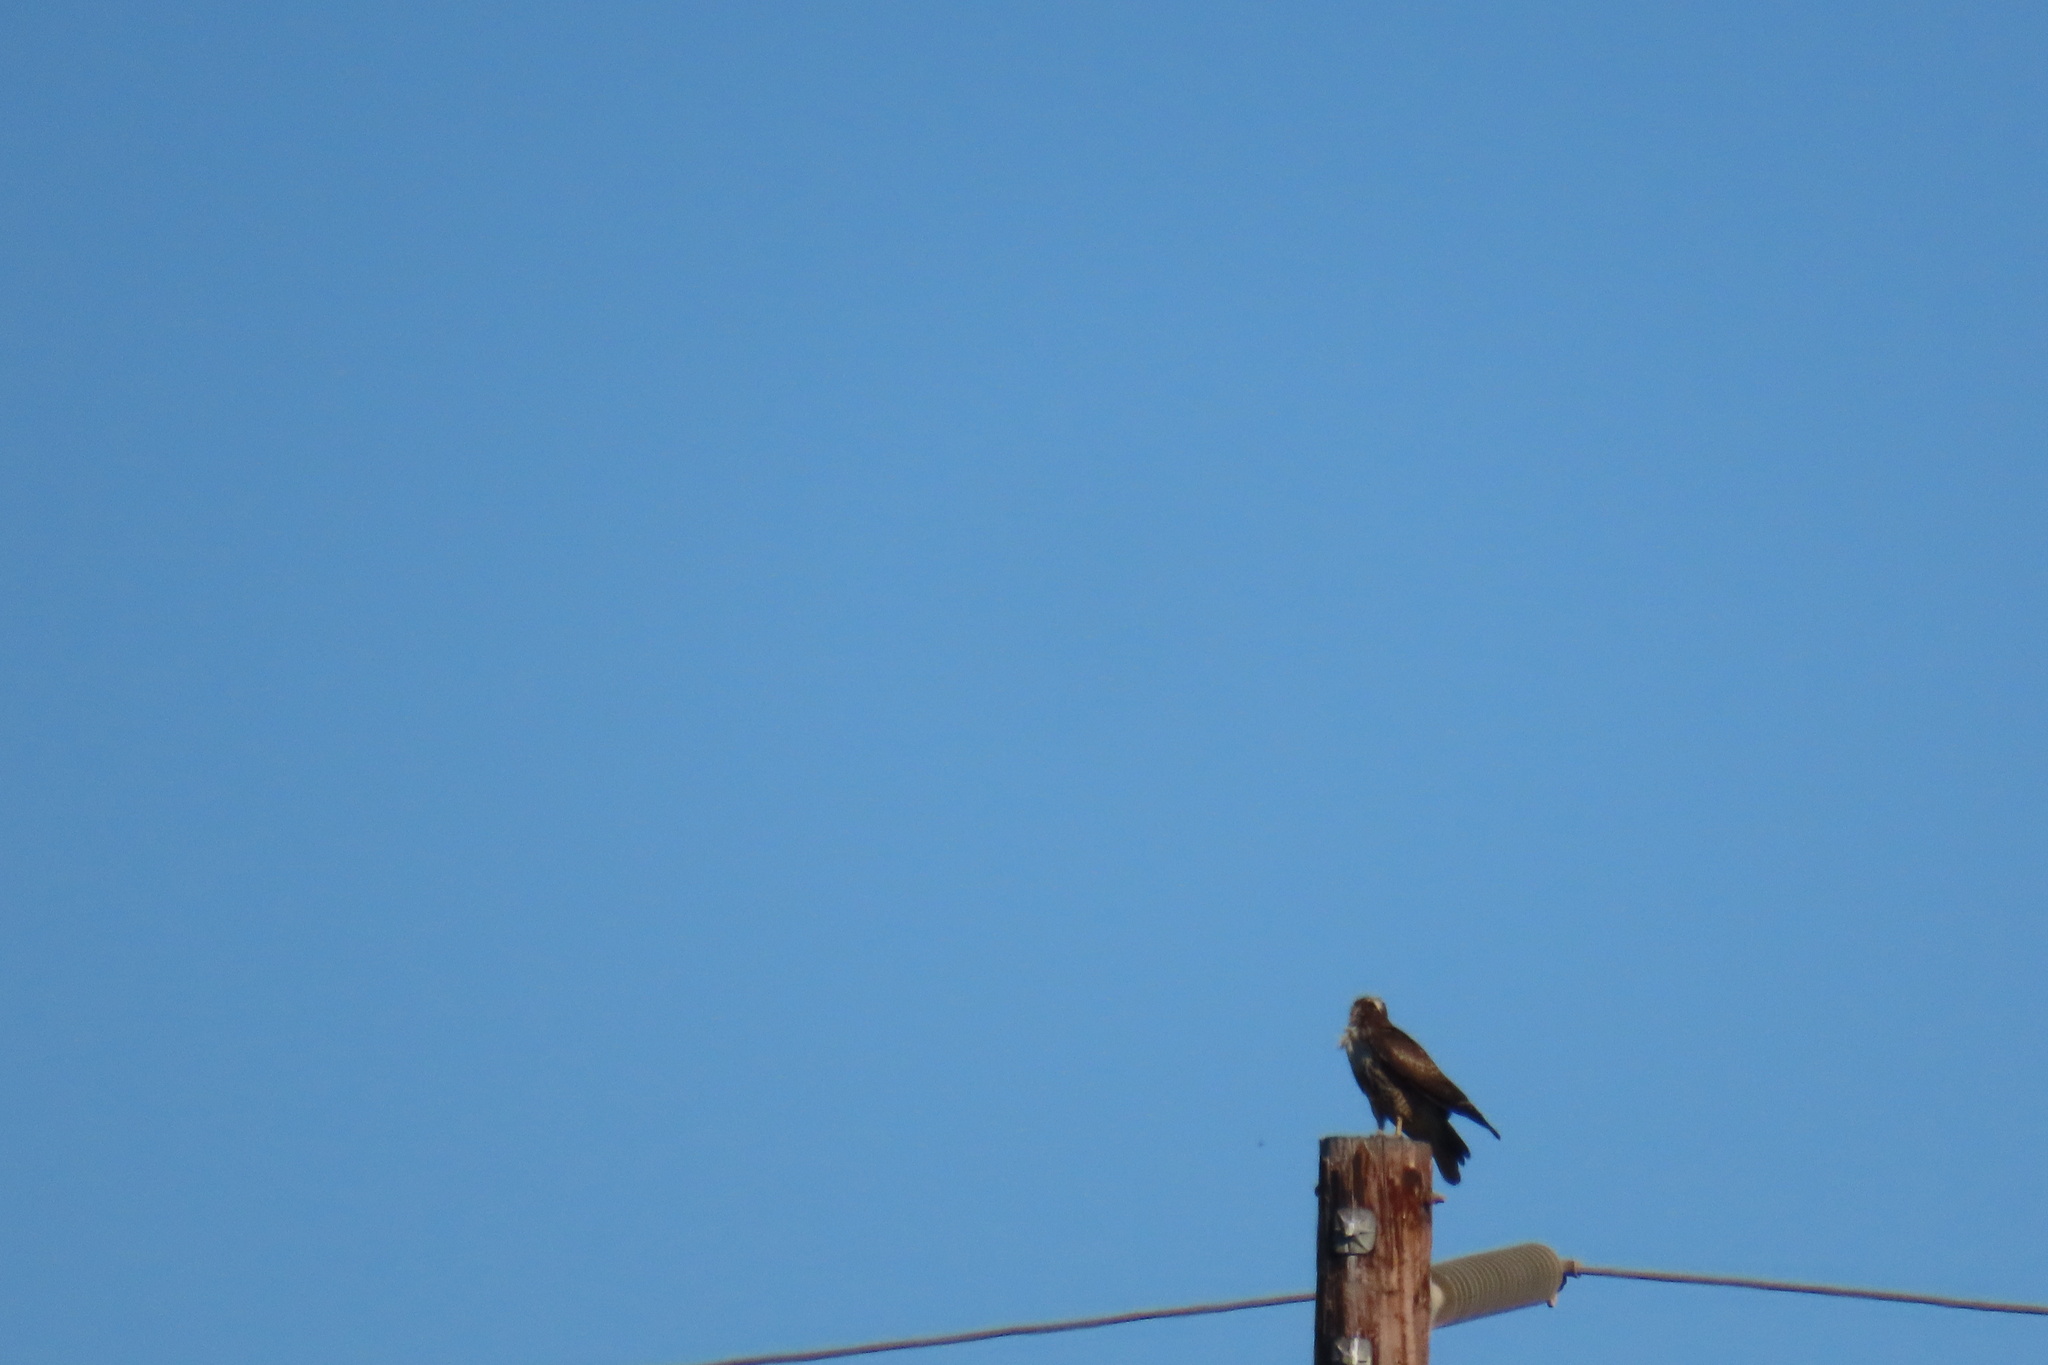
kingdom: Animalia
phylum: Chordata
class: Aves
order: Accipitriformes
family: Accipitridae
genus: Buteo
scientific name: Buteo jamaicensis
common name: Red-tailed hawk
